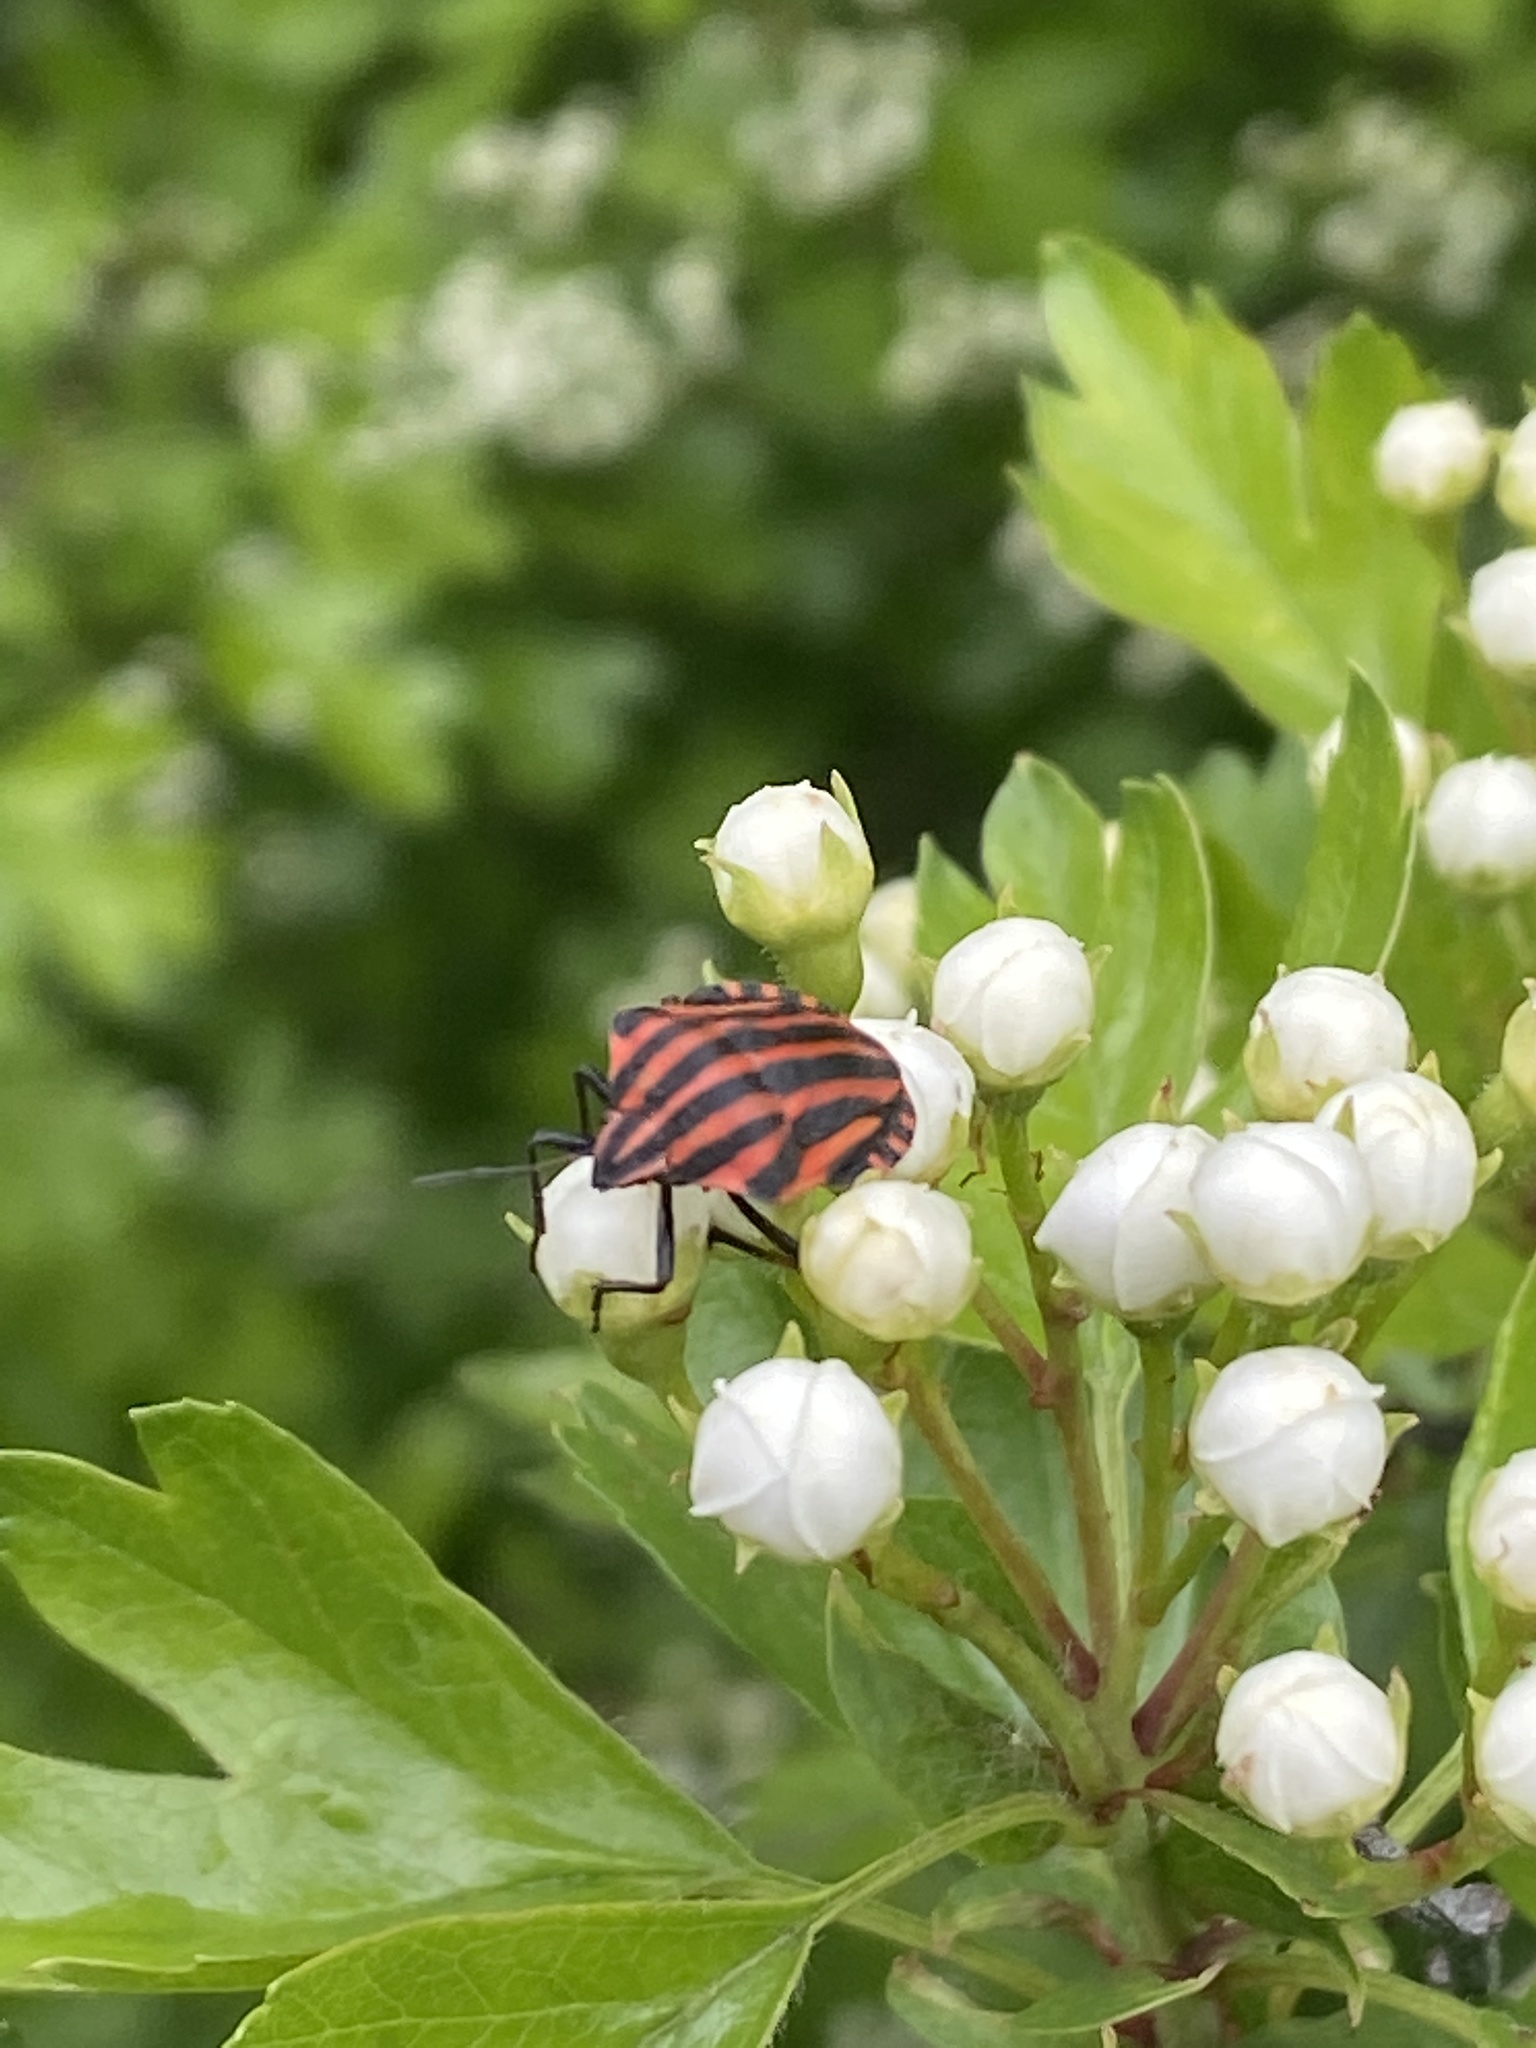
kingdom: Animalia
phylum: Arthropoda
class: Insecta
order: Hemiptera
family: Pentatomidae
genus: Graphosoma
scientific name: Graphosoma italicum
